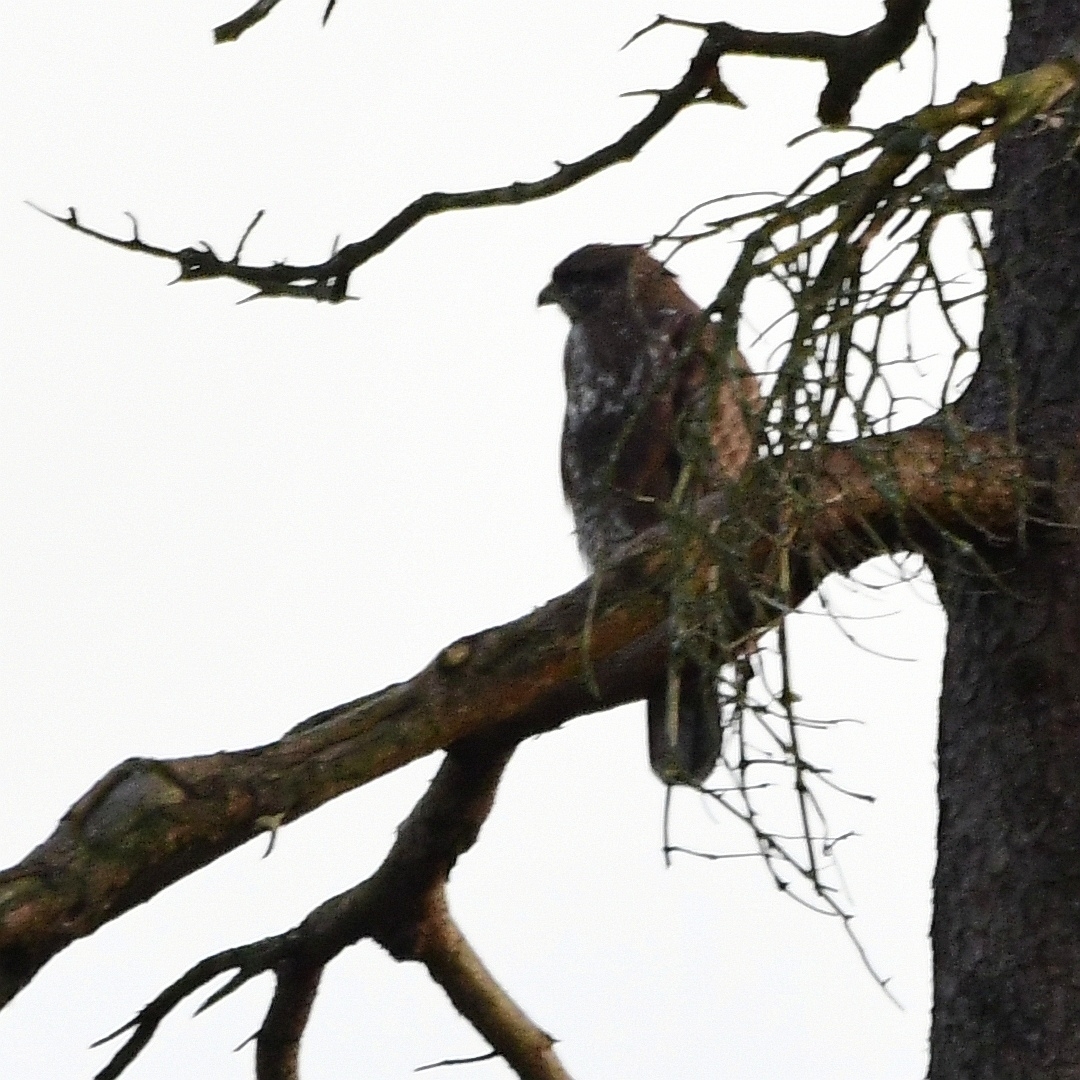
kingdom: Animalia
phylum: Chordata
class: Aves
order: Accipitriformes
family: Accipitridae
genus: Buteo
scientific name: Buteo buteo
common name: Common buzzard
